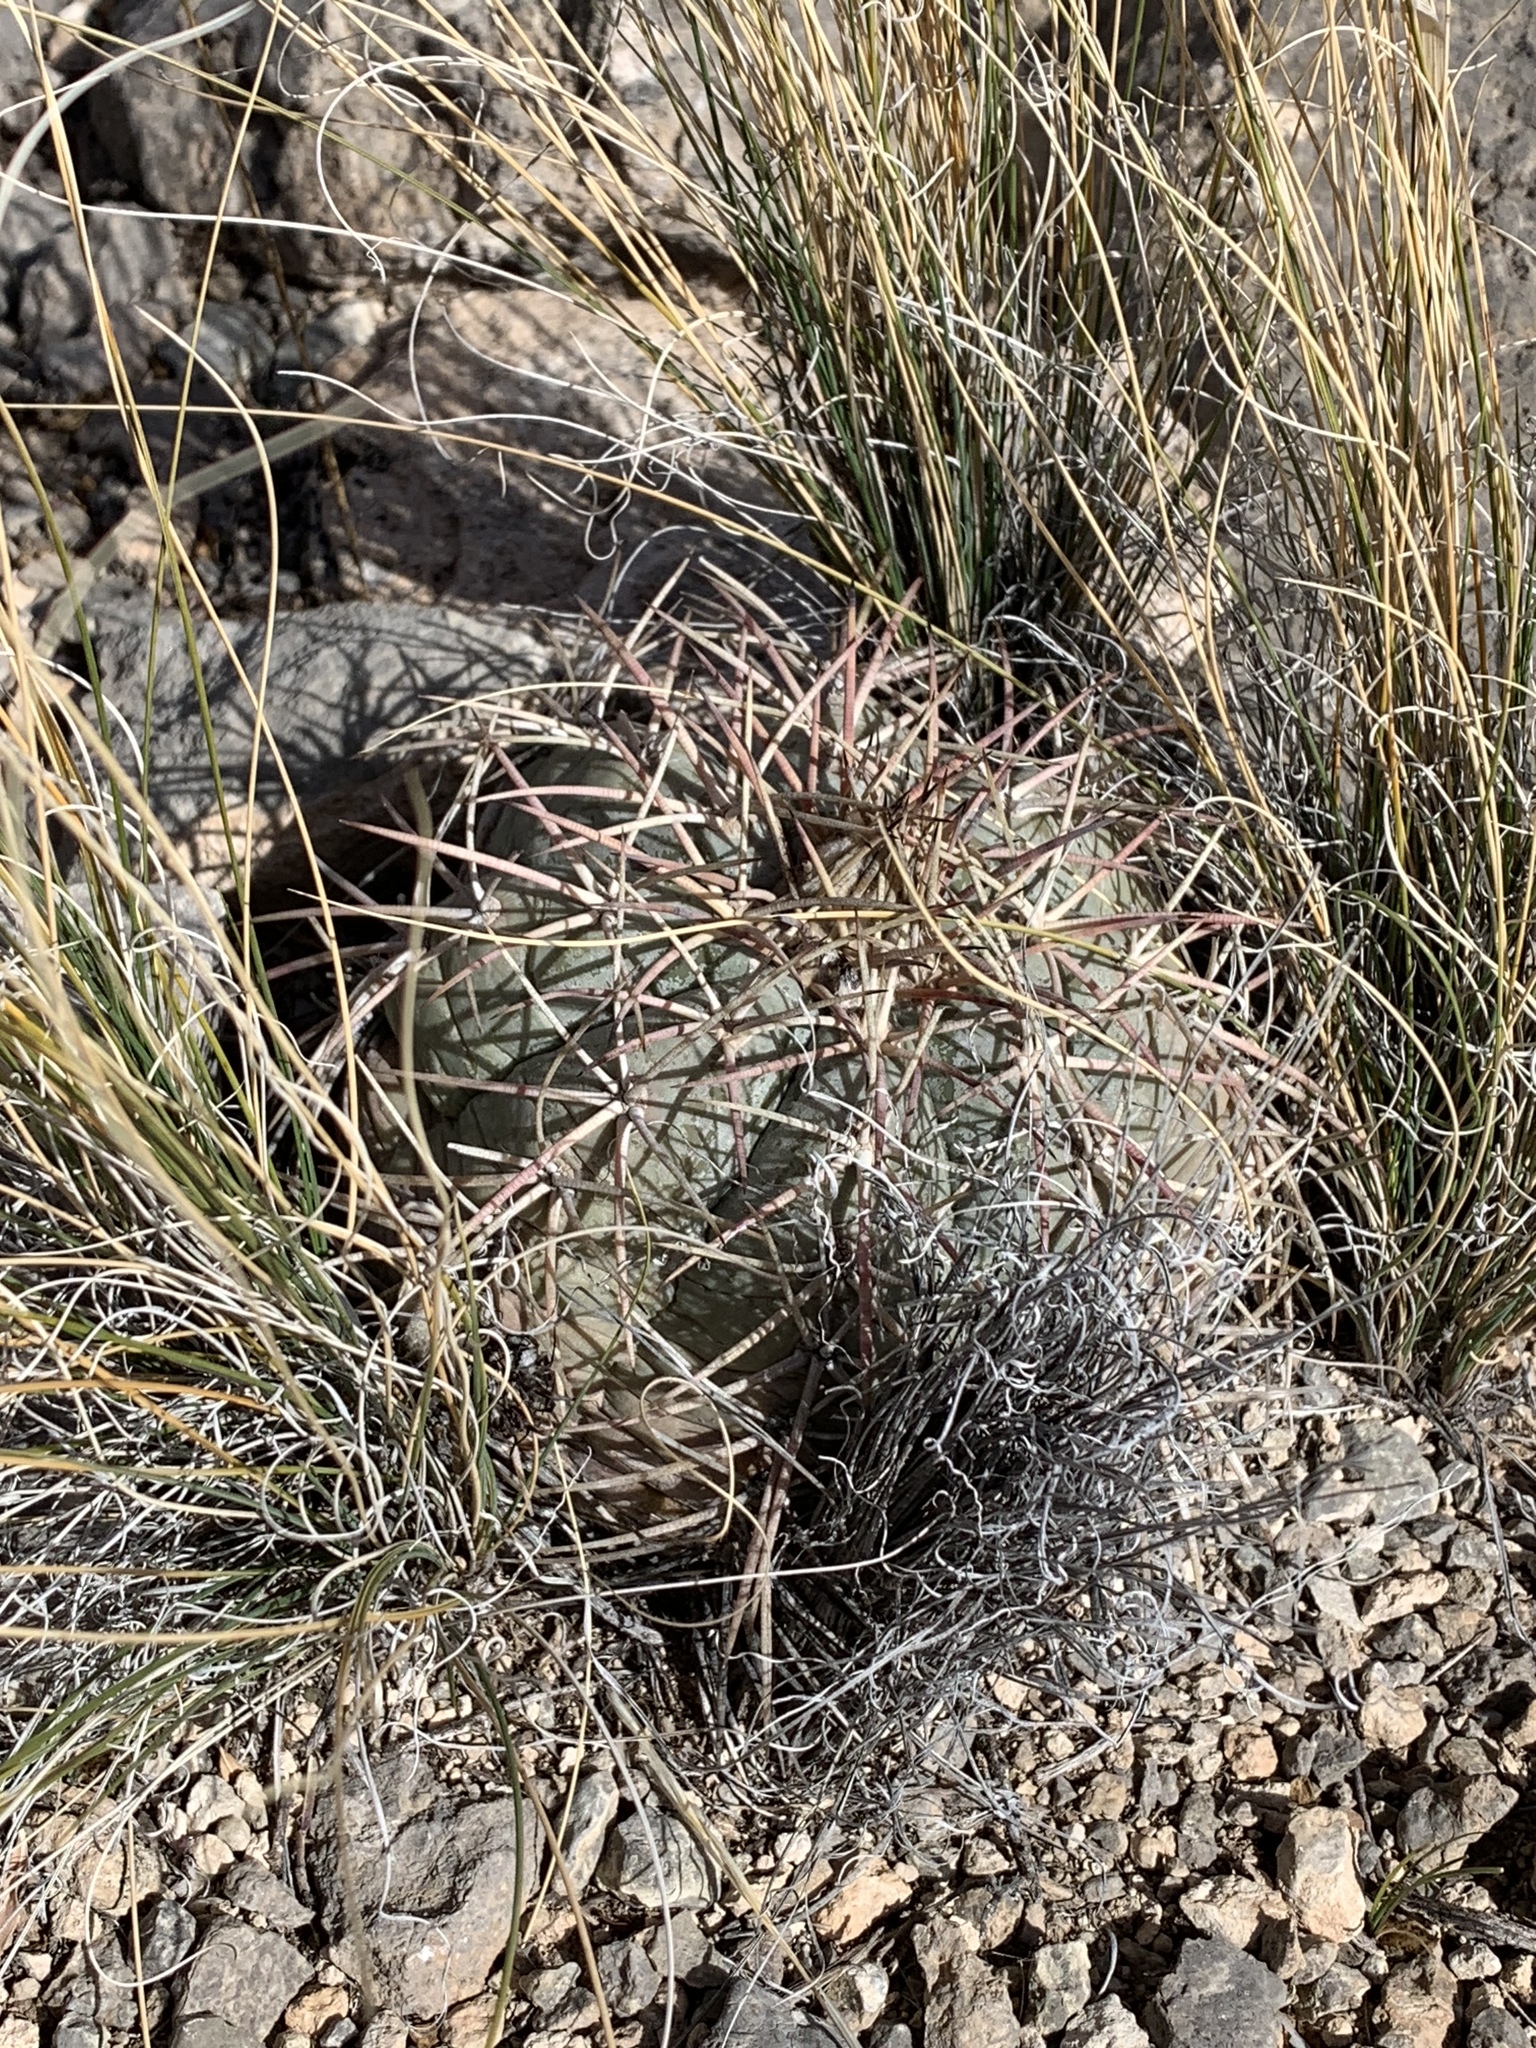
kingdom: Plantae
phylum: Tracheophyta
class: Magnoliopsida
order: Caryophyllales
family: Cactaceae
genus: Echinocactus
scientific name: Echinocactus horizonthalonius
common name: Devilshead
